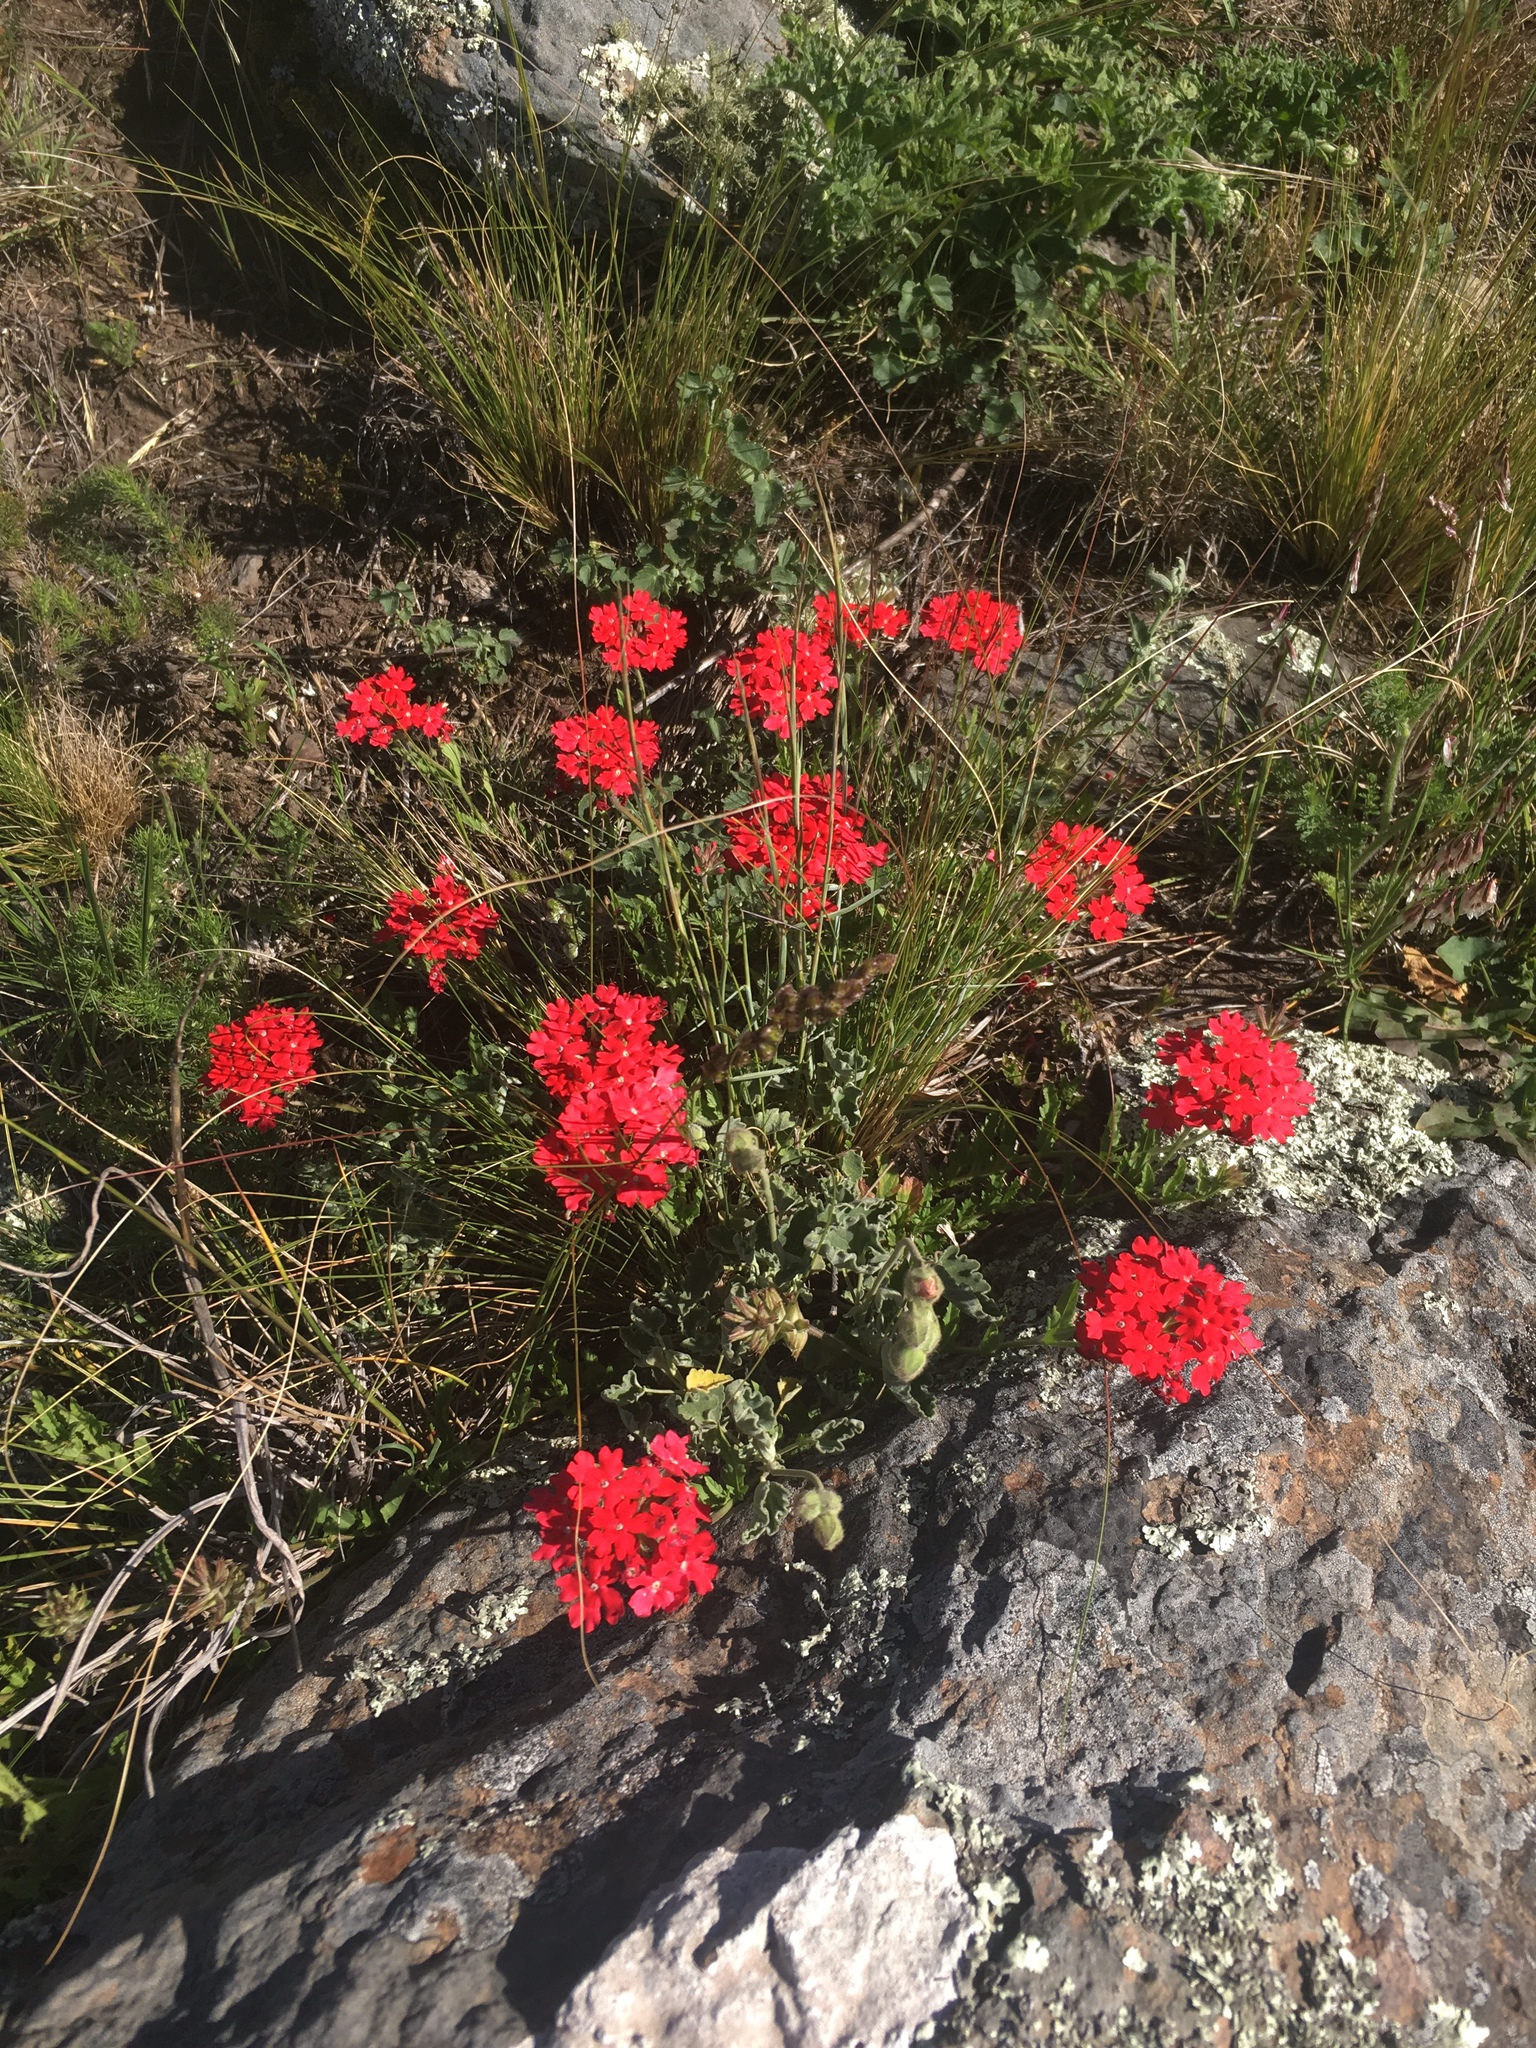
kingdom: Plantae
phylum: Tracheophyta
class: Magnoliopsida
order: Lamiales
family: Verbenaceae
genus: Verbena
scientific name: Verbena peruviana
